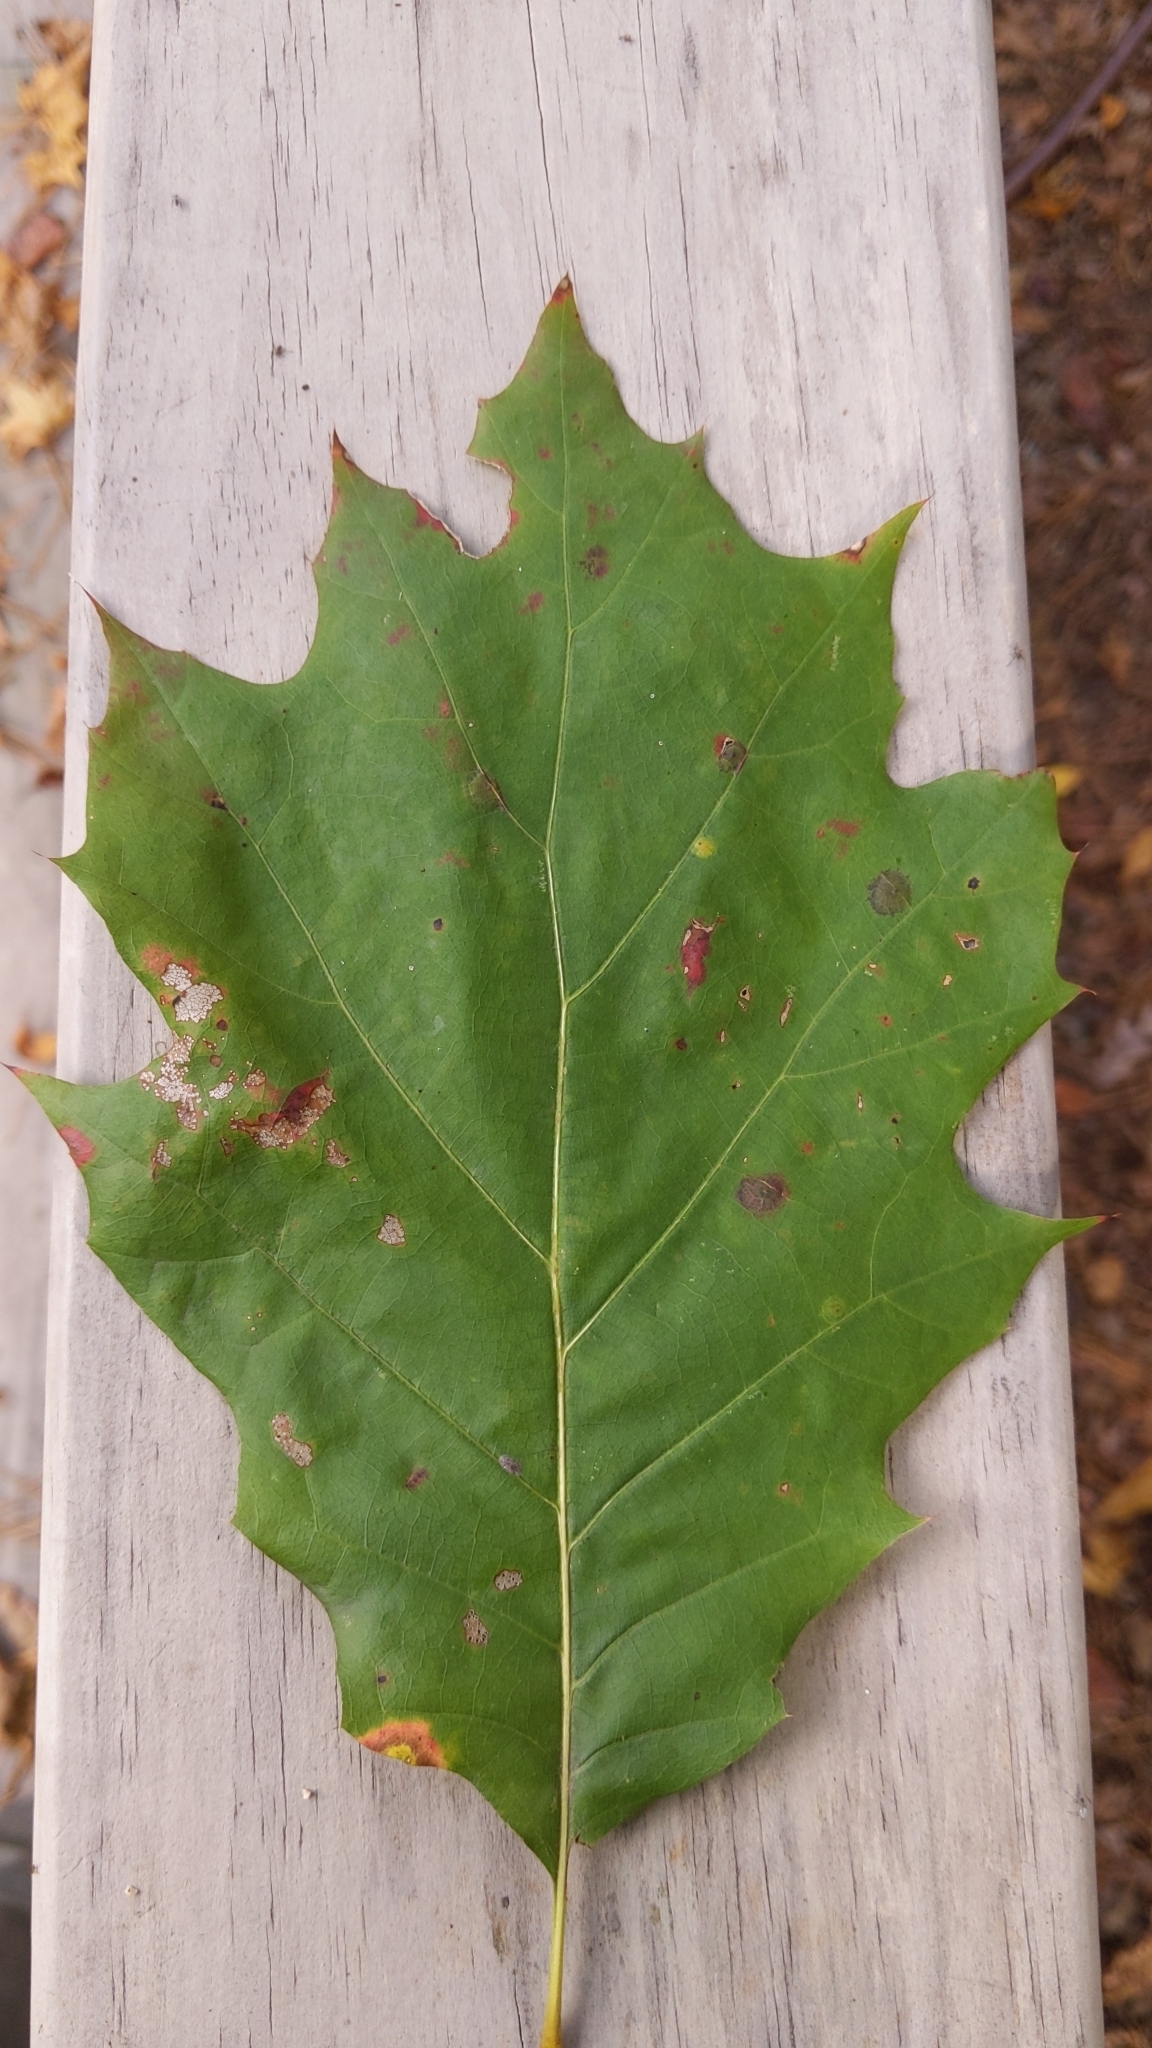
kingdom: Plantae
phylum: Tracheophyta
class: Magnoliopsida
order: Fagales
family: Fagaceae
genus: Quercus
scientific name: Quercus rubra
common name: Red oak
